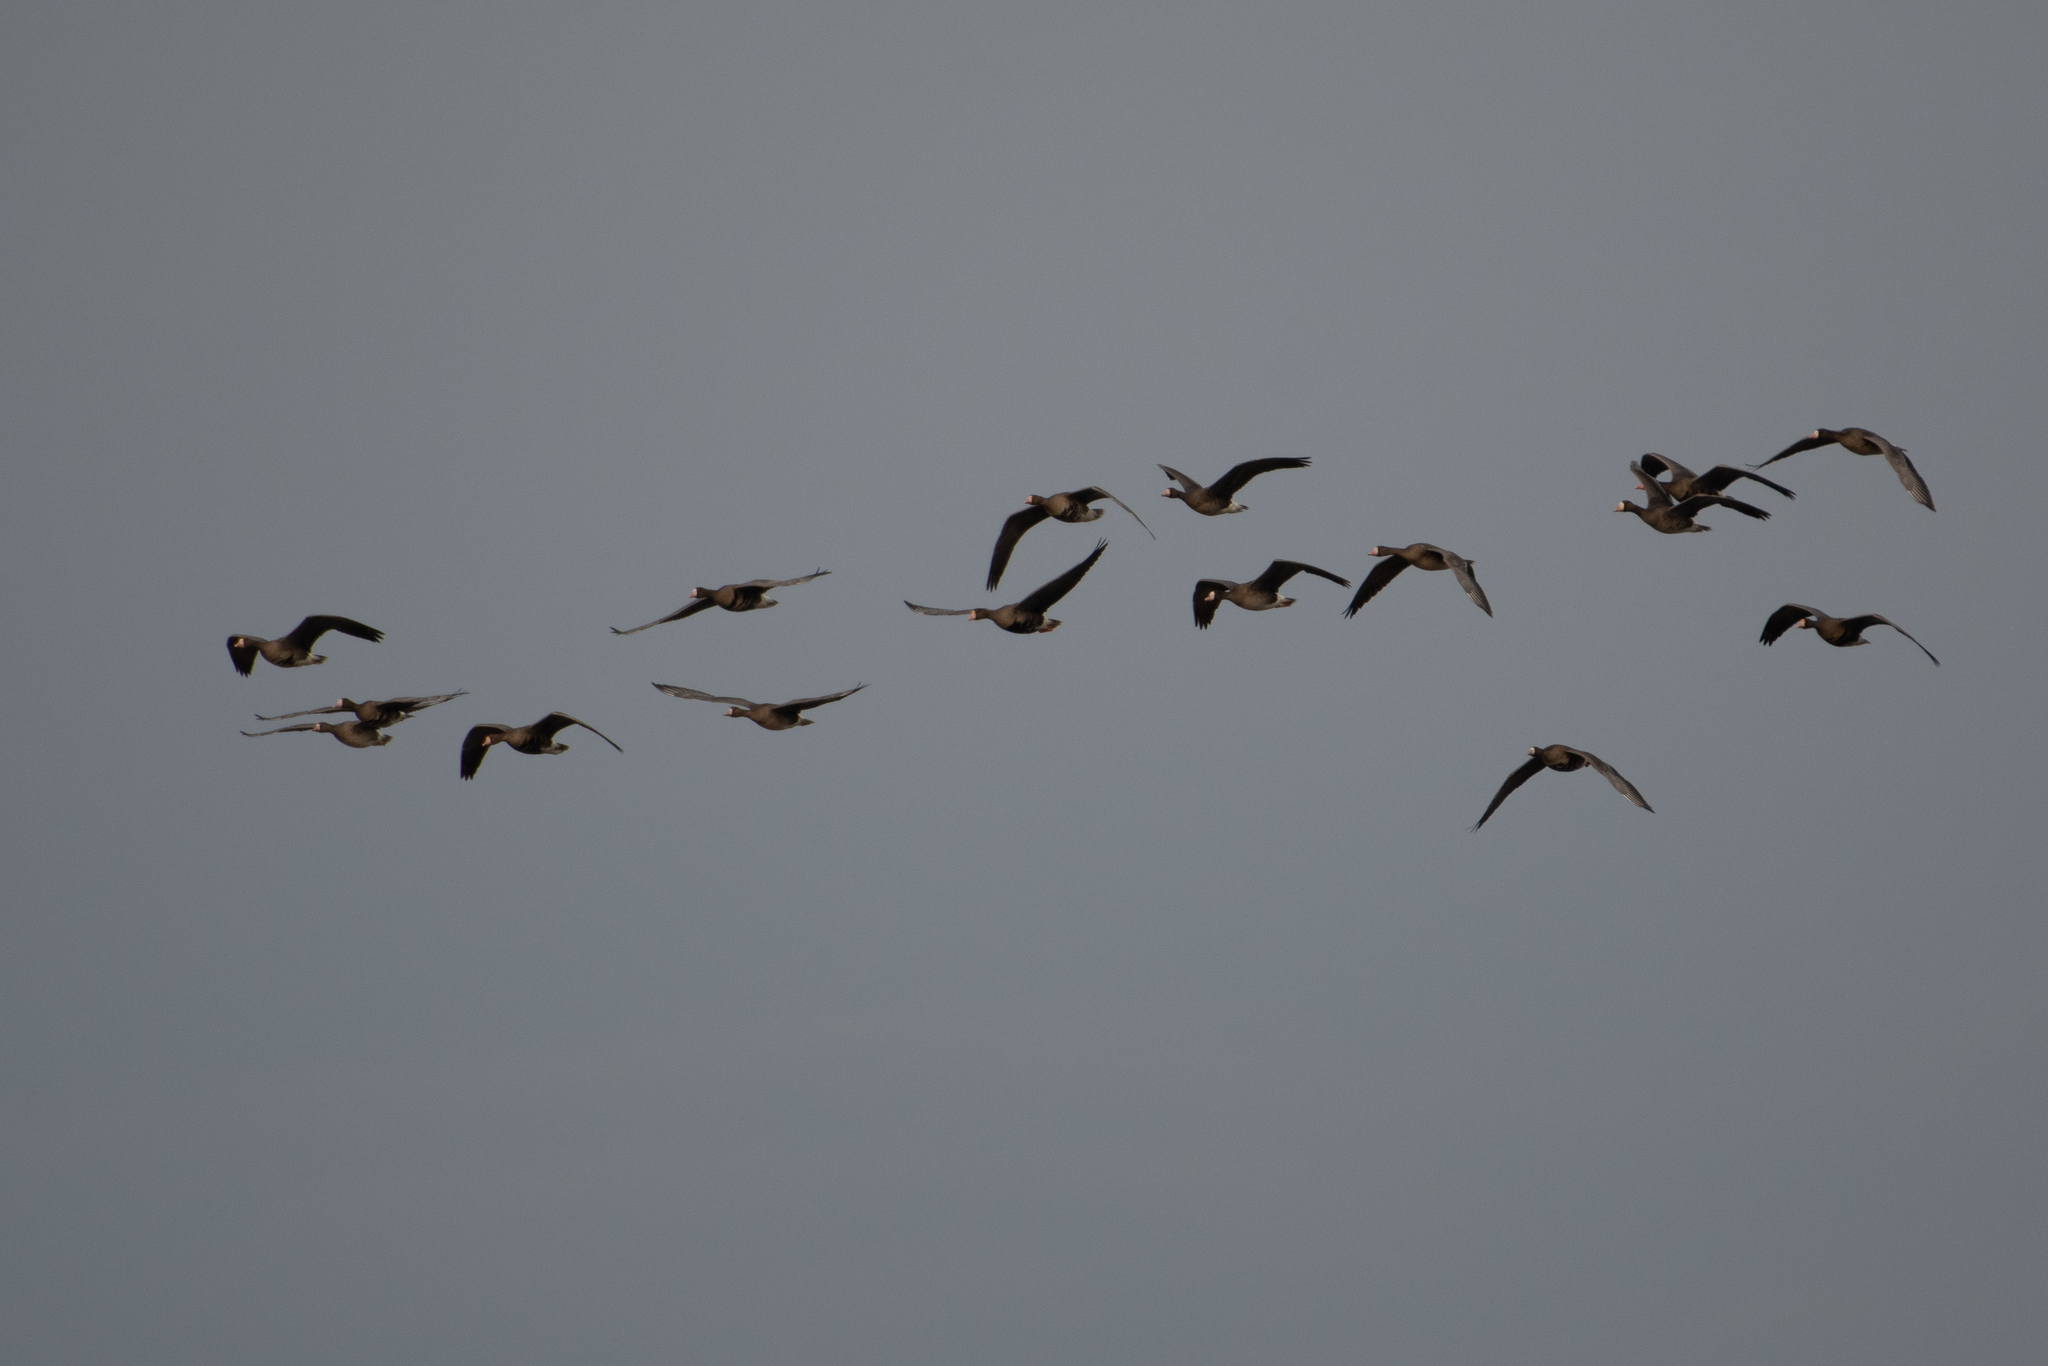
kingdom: Animalia
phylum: Chordata
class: Aves
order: Anseriformes
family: Anatidae
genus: Anser
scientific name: Anser albifrons
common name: Greater white-fronted goose
